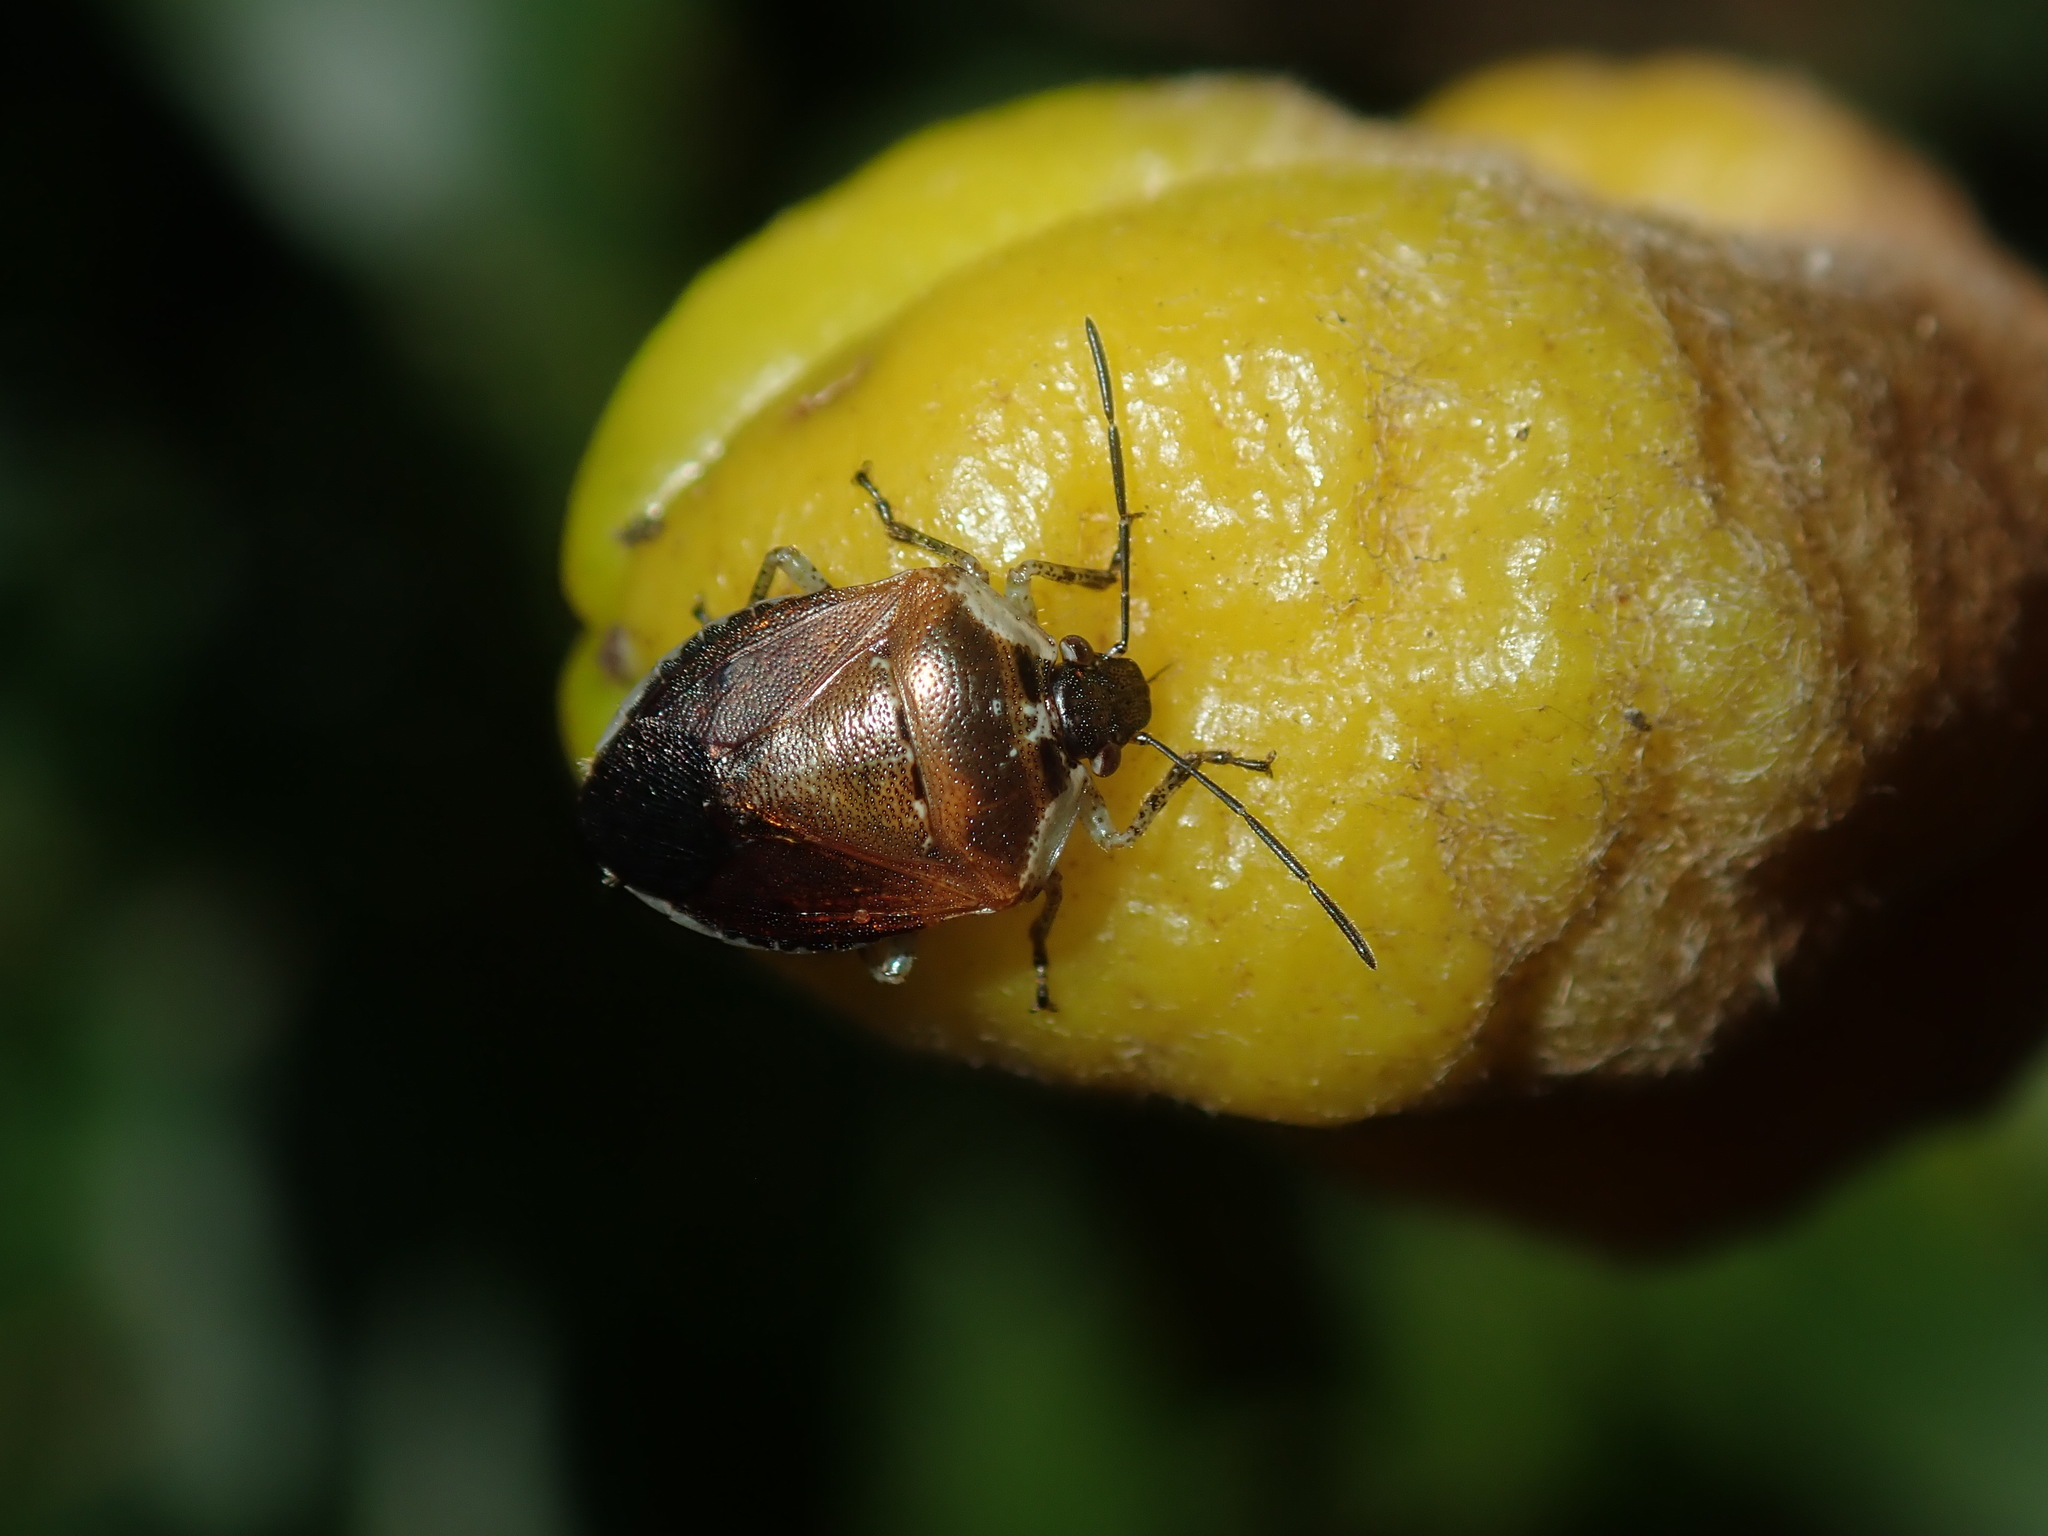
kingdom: Animalia
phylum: Arthropoda
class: Insecta
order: Hemiptera
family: Pentatomidae
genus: Monteithiella
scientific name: Monteithiella
